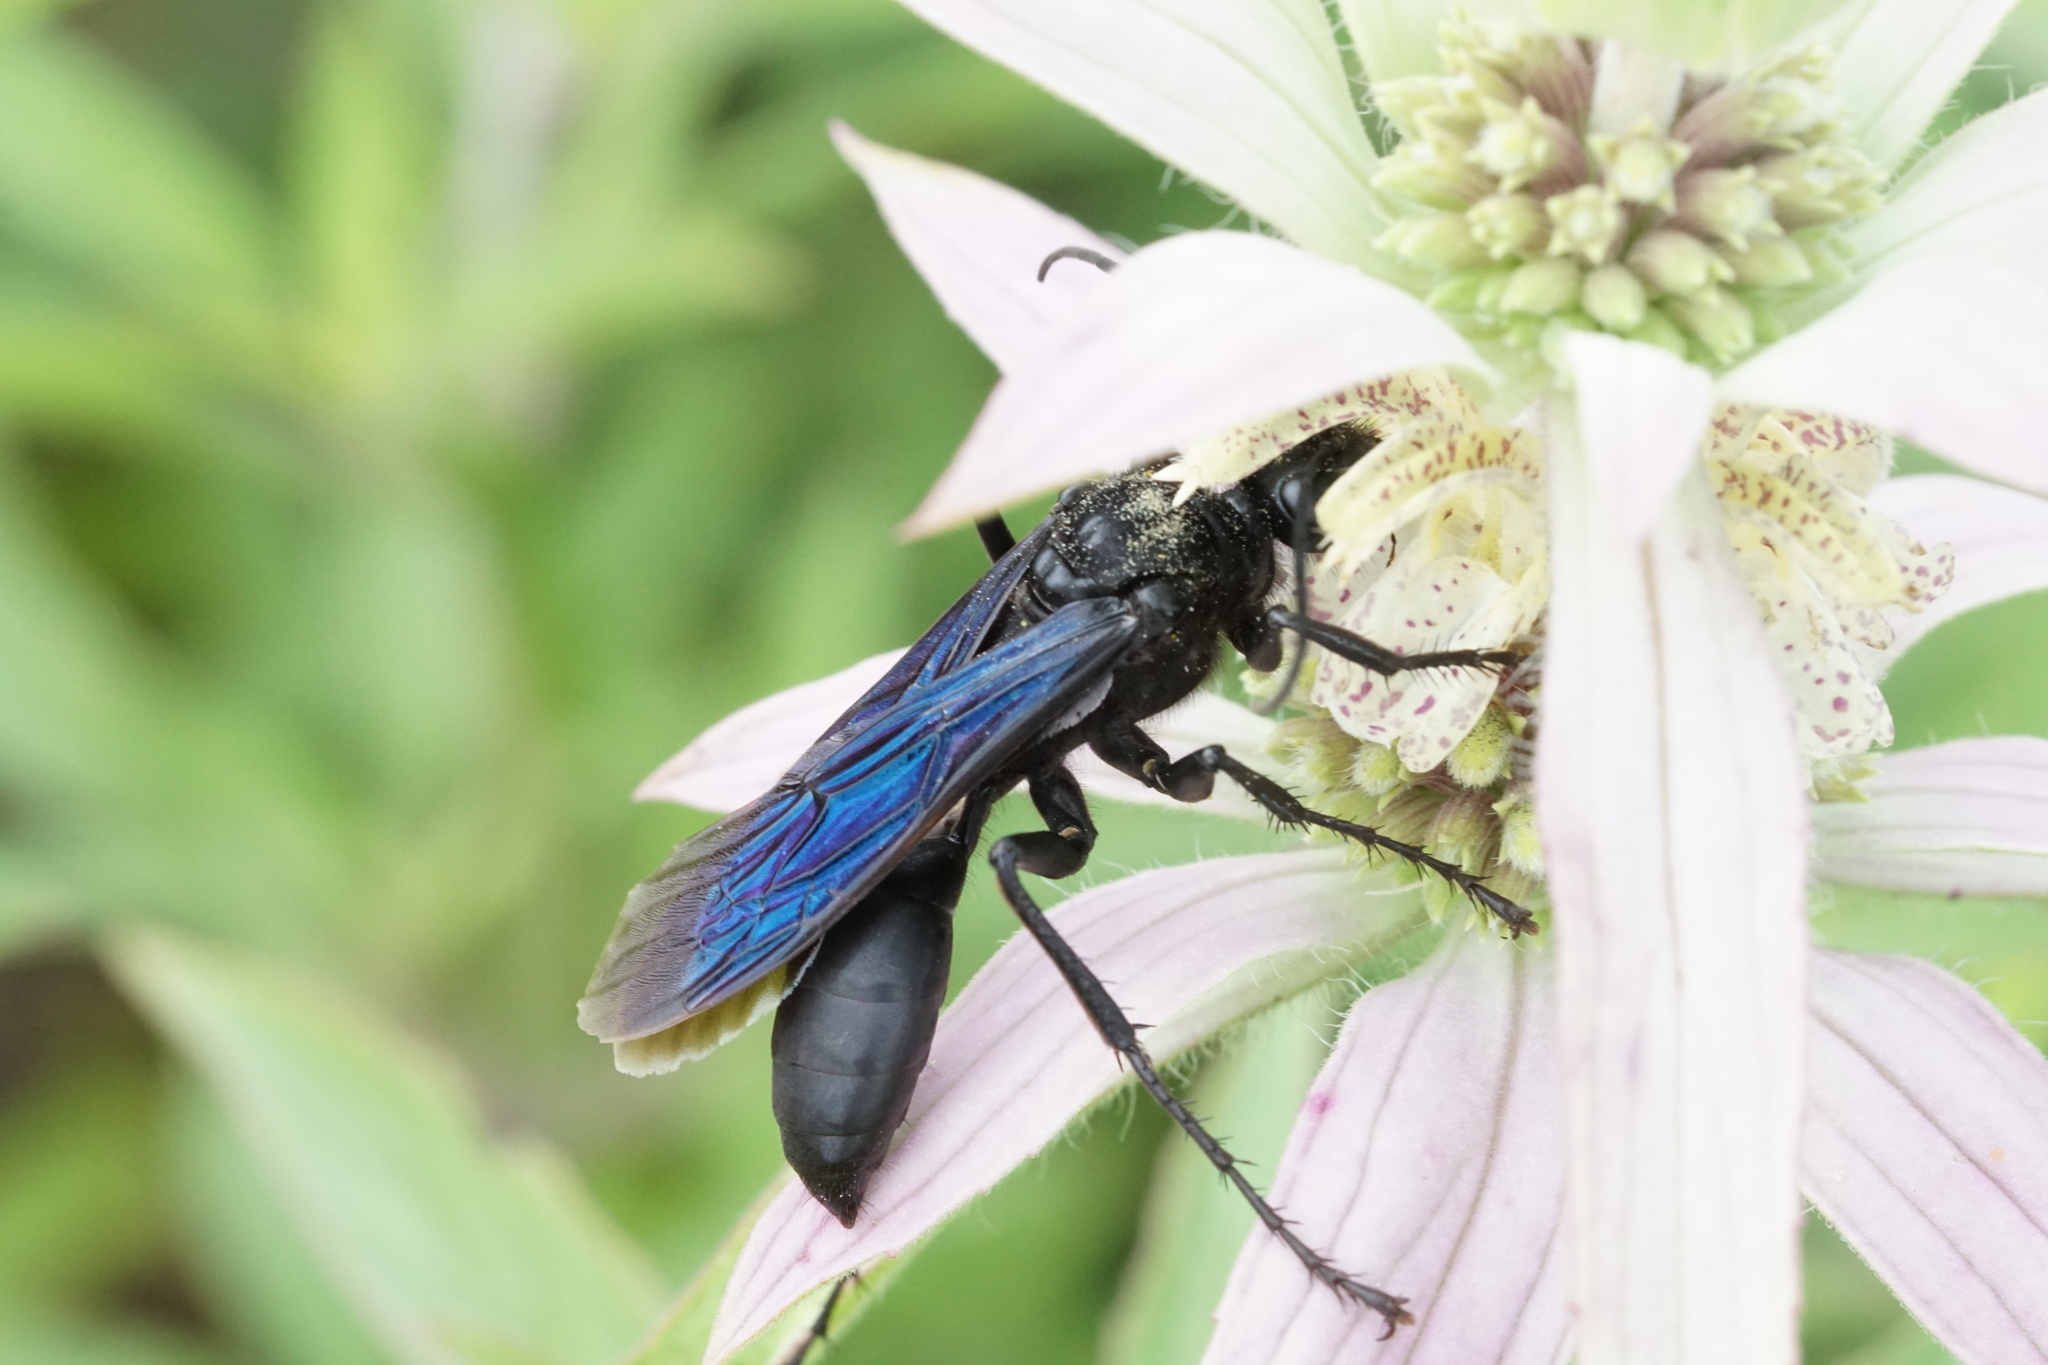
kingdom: Animalia
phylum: Arthropoda
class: Insecta
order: Hymenoptera
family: Sphecidae
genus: Sphex
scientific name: Sphex pensylvanicus
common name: Great black digger wasp
